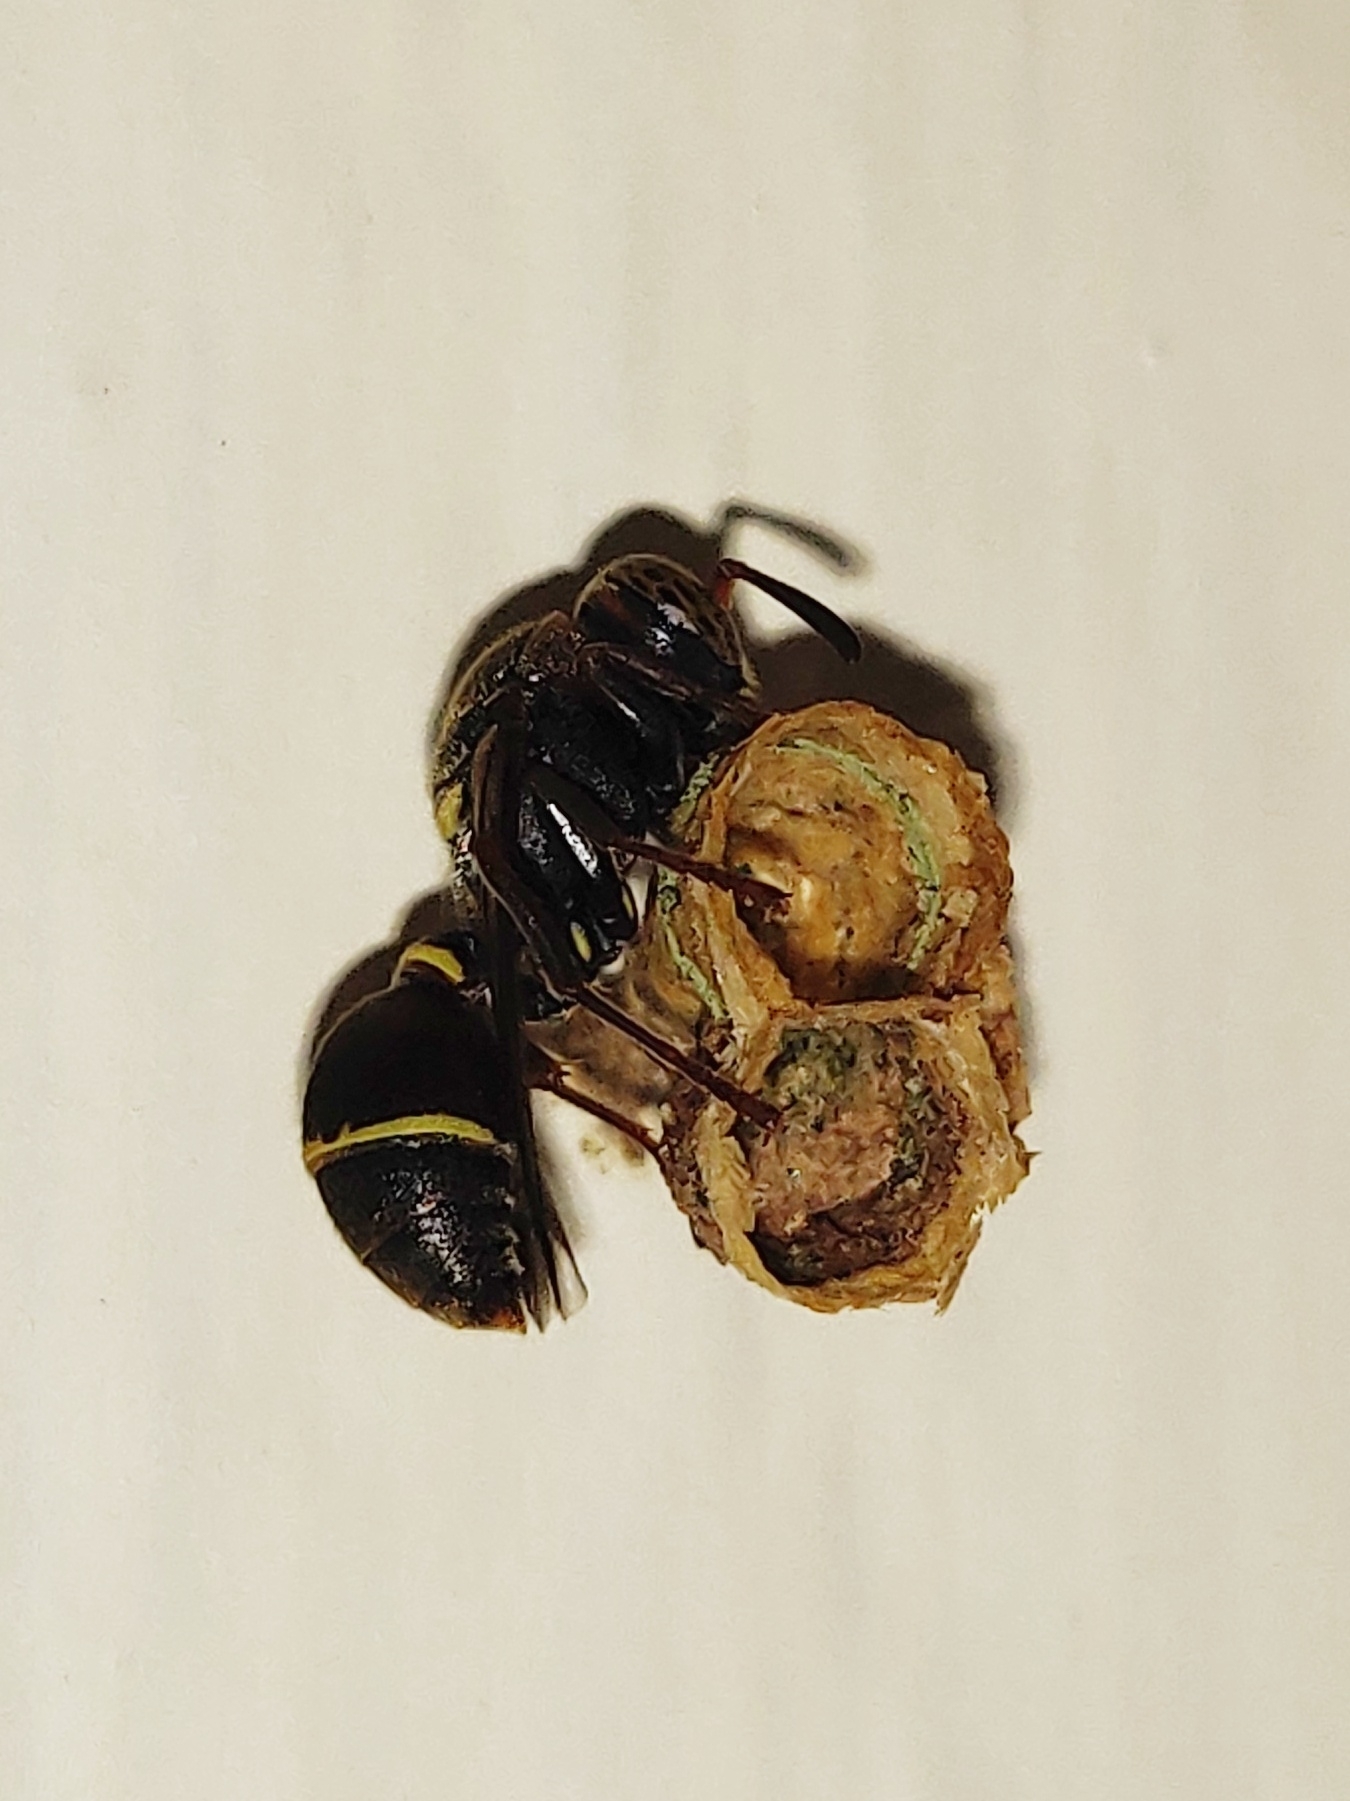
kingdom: Animalia
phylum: Arthropoda
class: Insecta
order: Hymenoptera
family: Vespidae
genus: Ropalidia
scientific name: Ropalidia marginata
